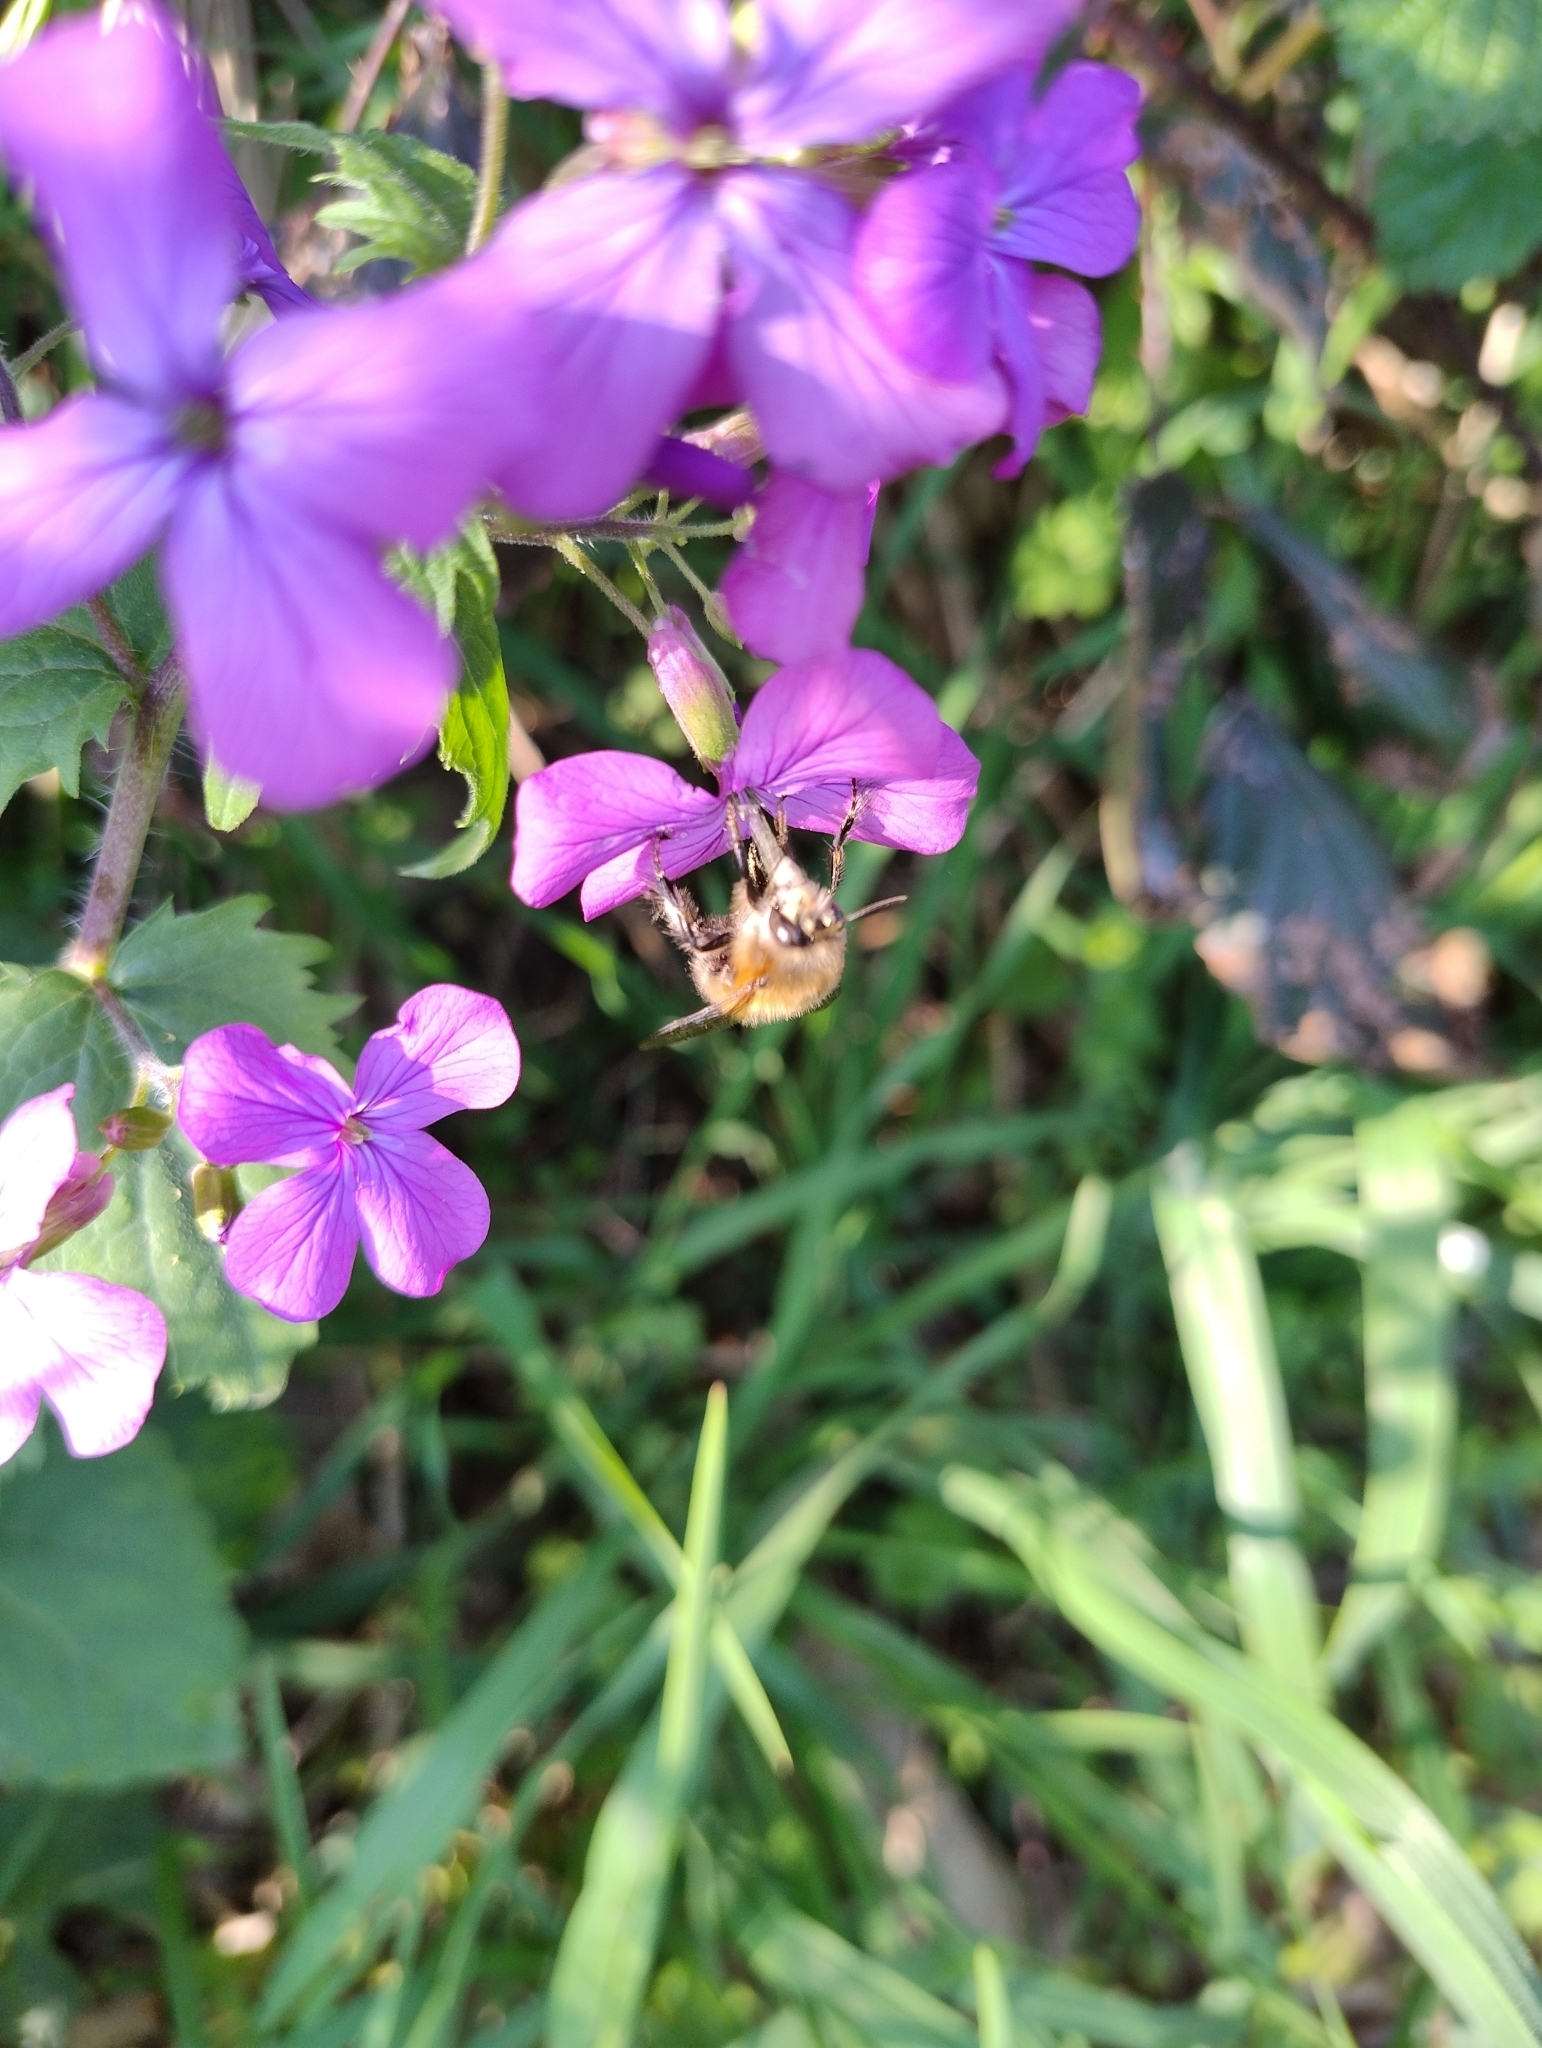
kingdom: Animalia
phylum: Arthropoda
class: Insecta
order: Hymenoptera
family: Apidae
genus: Anthophora
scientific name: Anthophora plumipes
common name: Hairy-footed flower bee
